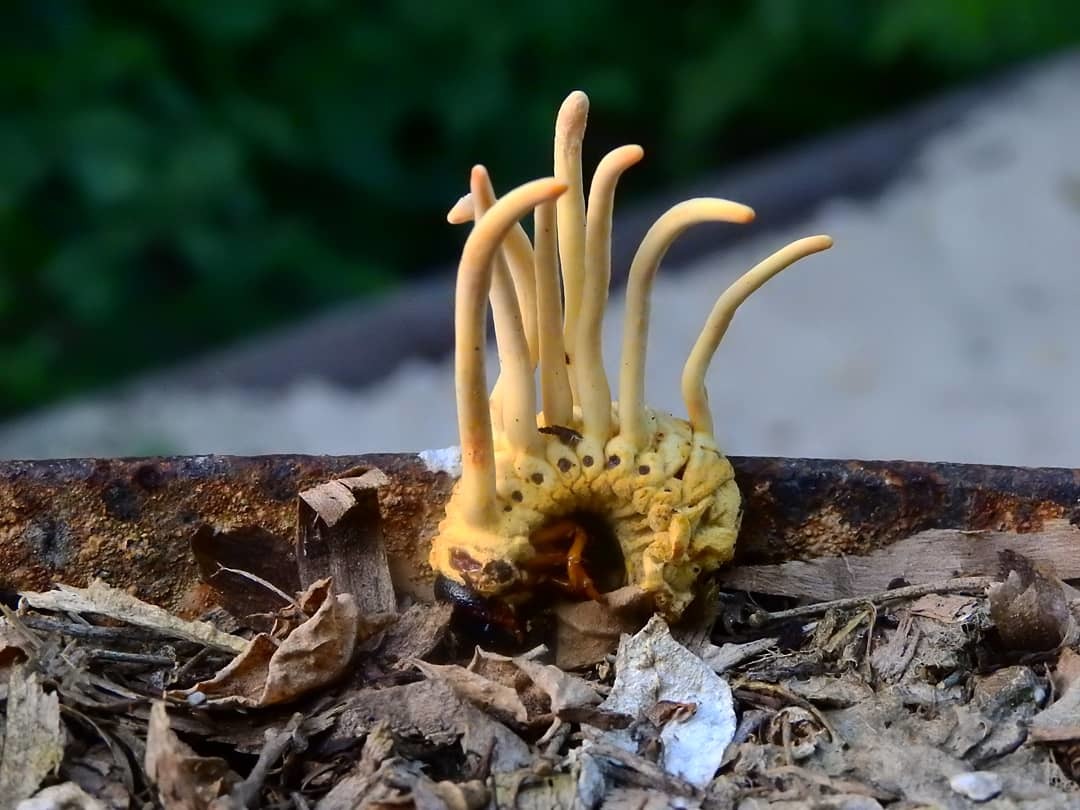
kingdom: Fungi
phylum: Ascomycota
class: Sordariomycetes
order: Hypocreales
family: Ophiocordycipitaceae
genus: Ophiocordyceps
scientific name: Ophiocordyceps melolonthae
